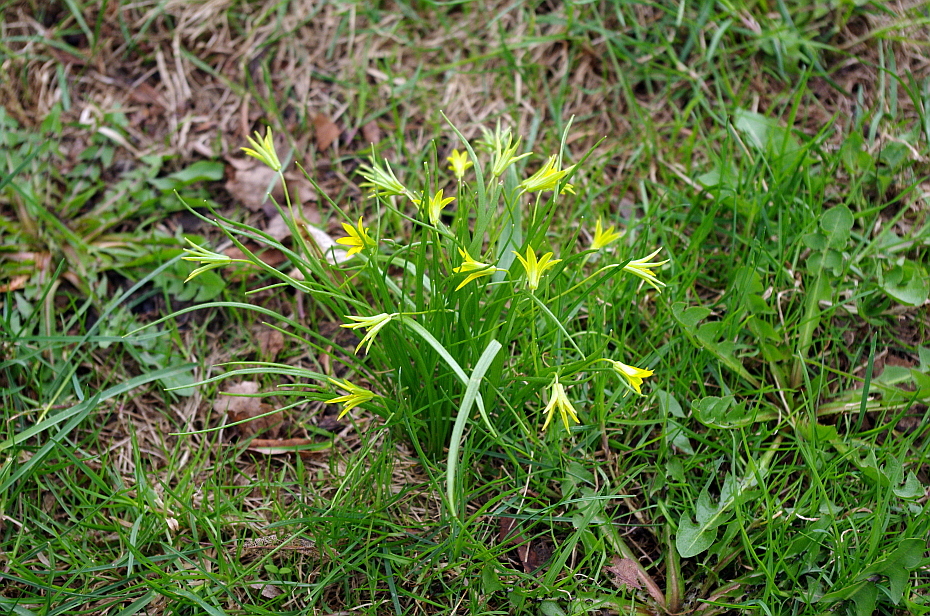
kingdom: Plantae
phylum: Tracheophyta
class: Liliopsida
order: Liliales
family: Liliaceae
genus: Gagea
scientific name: Gagea minima
